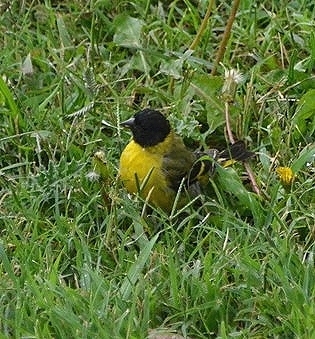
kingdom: Animalia
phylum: Chordata
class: Aves
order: Passeriformes
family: Fringillidae
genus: Spinus
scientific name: Spinus magellanicus
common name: Hooded siskin
